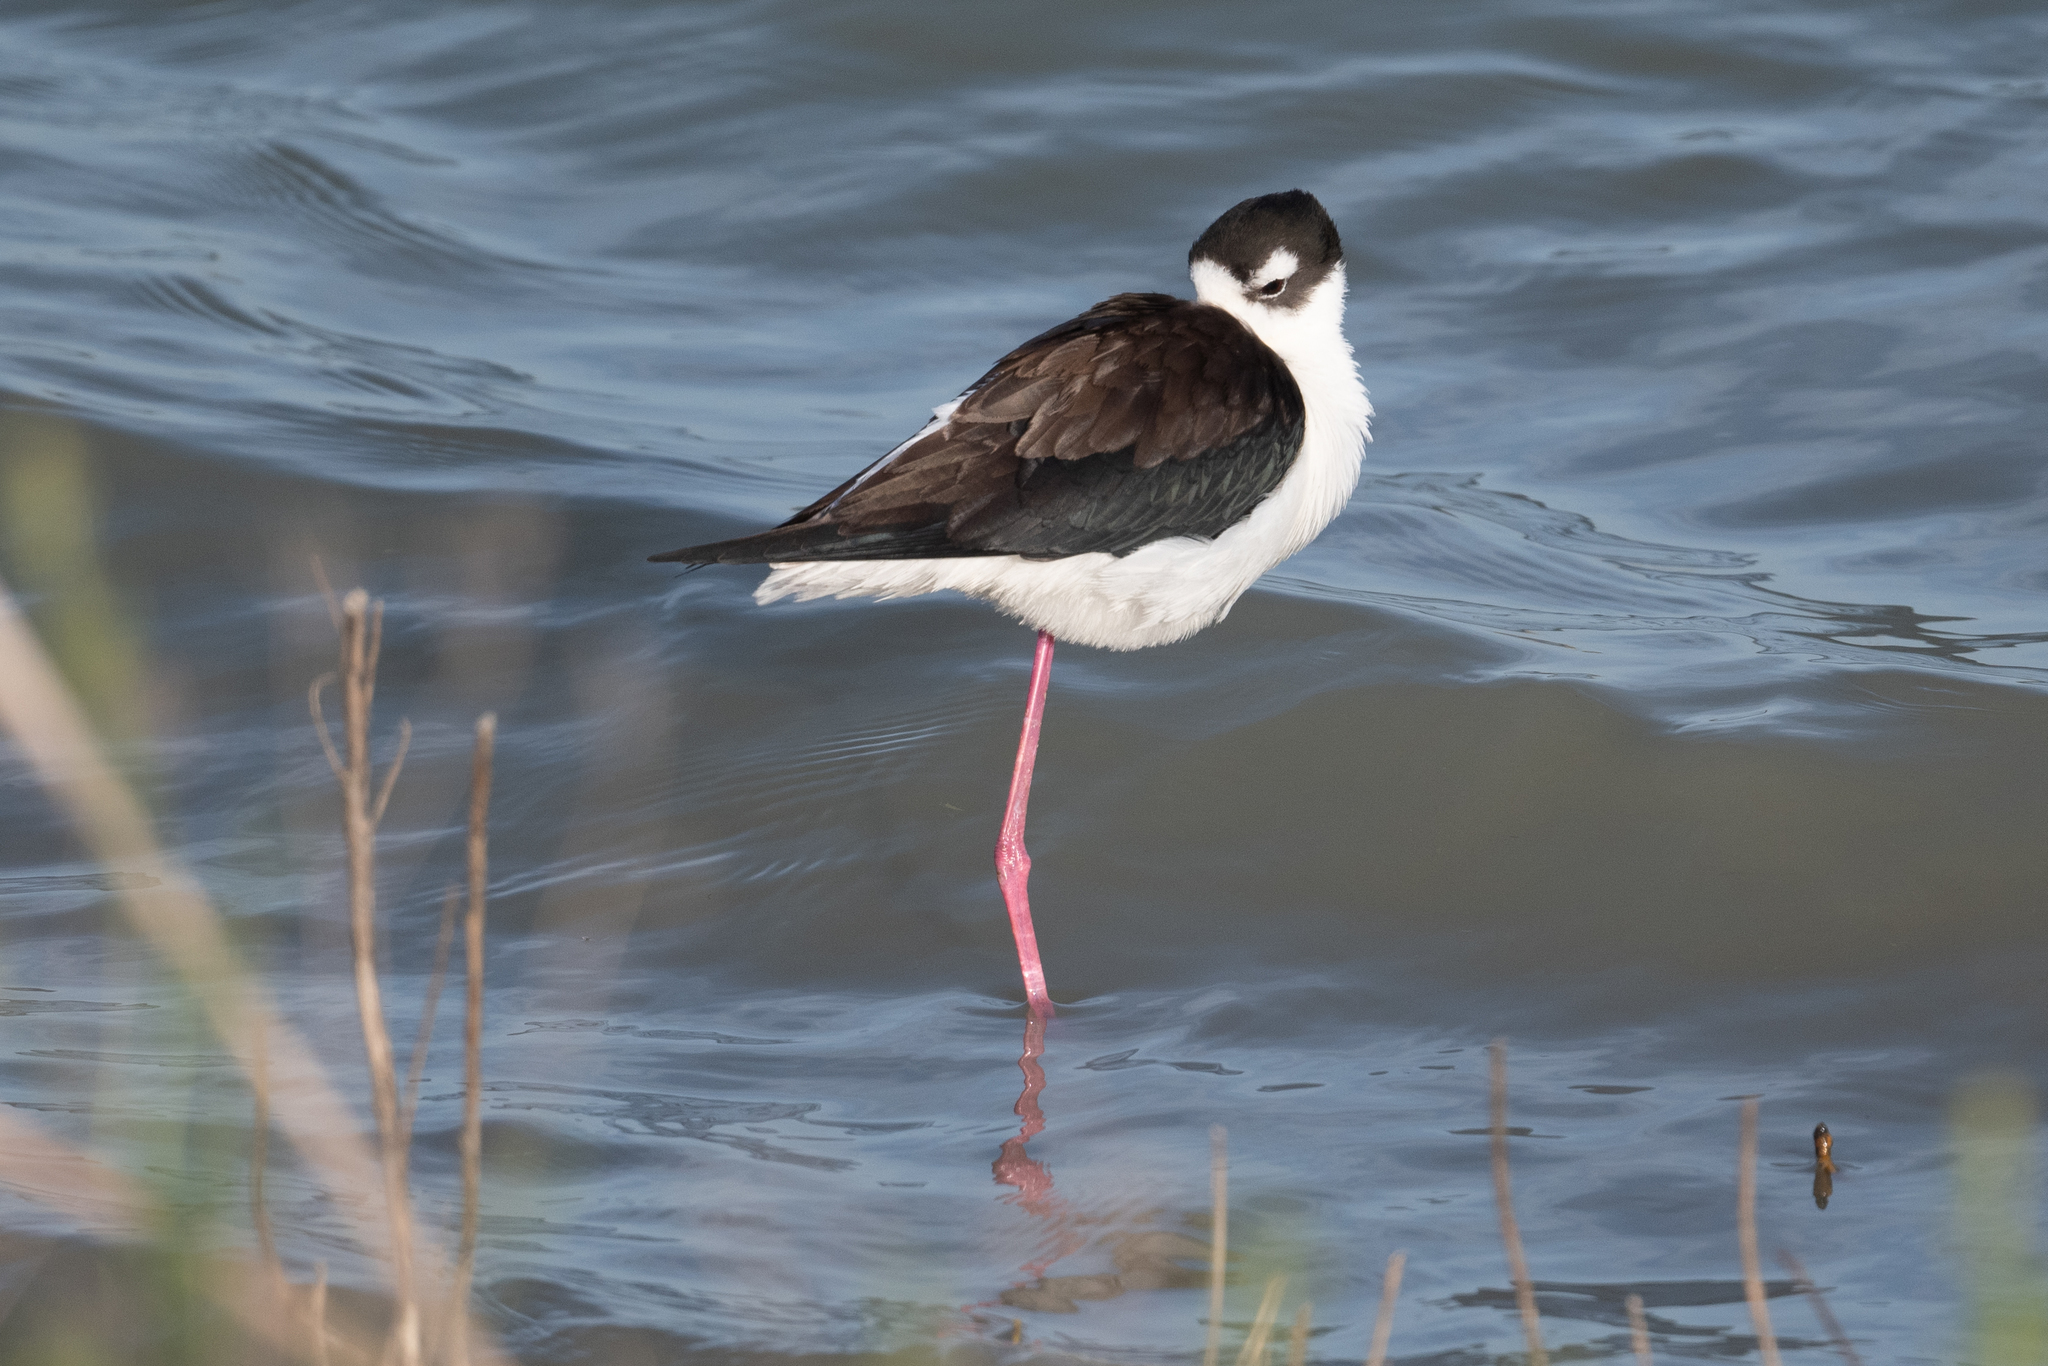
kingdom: Animalia
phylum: Chordata
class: Aves
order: Charadriiformes
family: Recurvirostridae
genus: Himantopus
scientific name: Himantopus mexicanus
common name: Black-necked stilt
